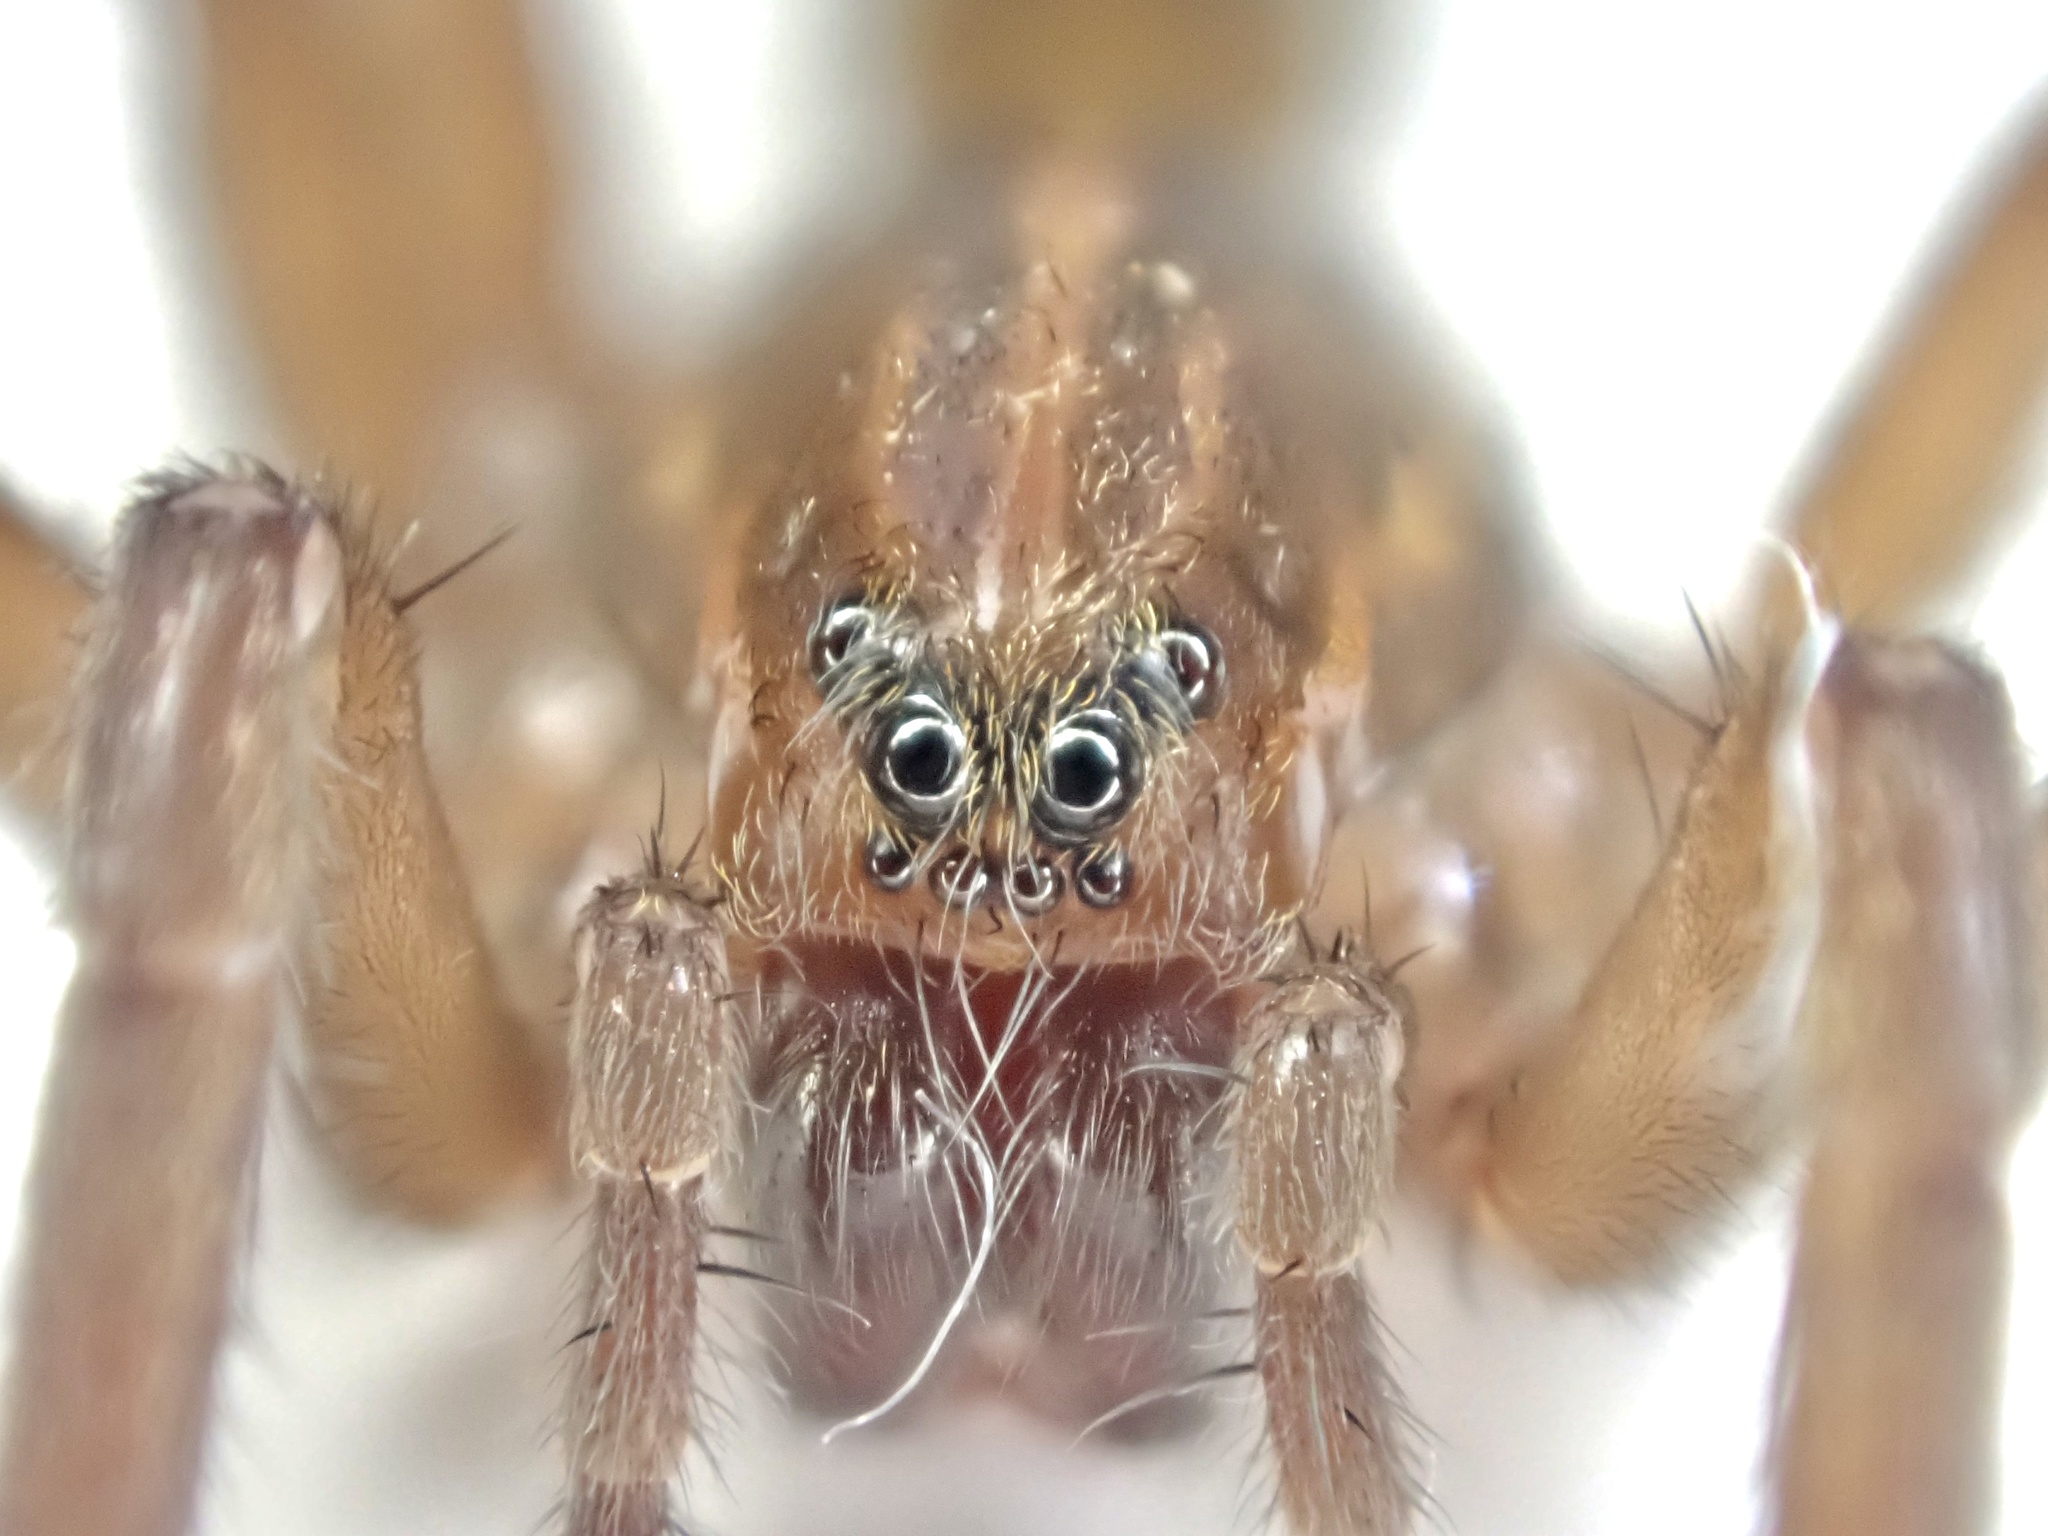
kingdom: Animalia
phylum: Arthropoda
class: Arachnida
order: Araneae
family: Lycosidae
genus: Trochosa
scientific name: Trochosa ruricola
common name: Spider
